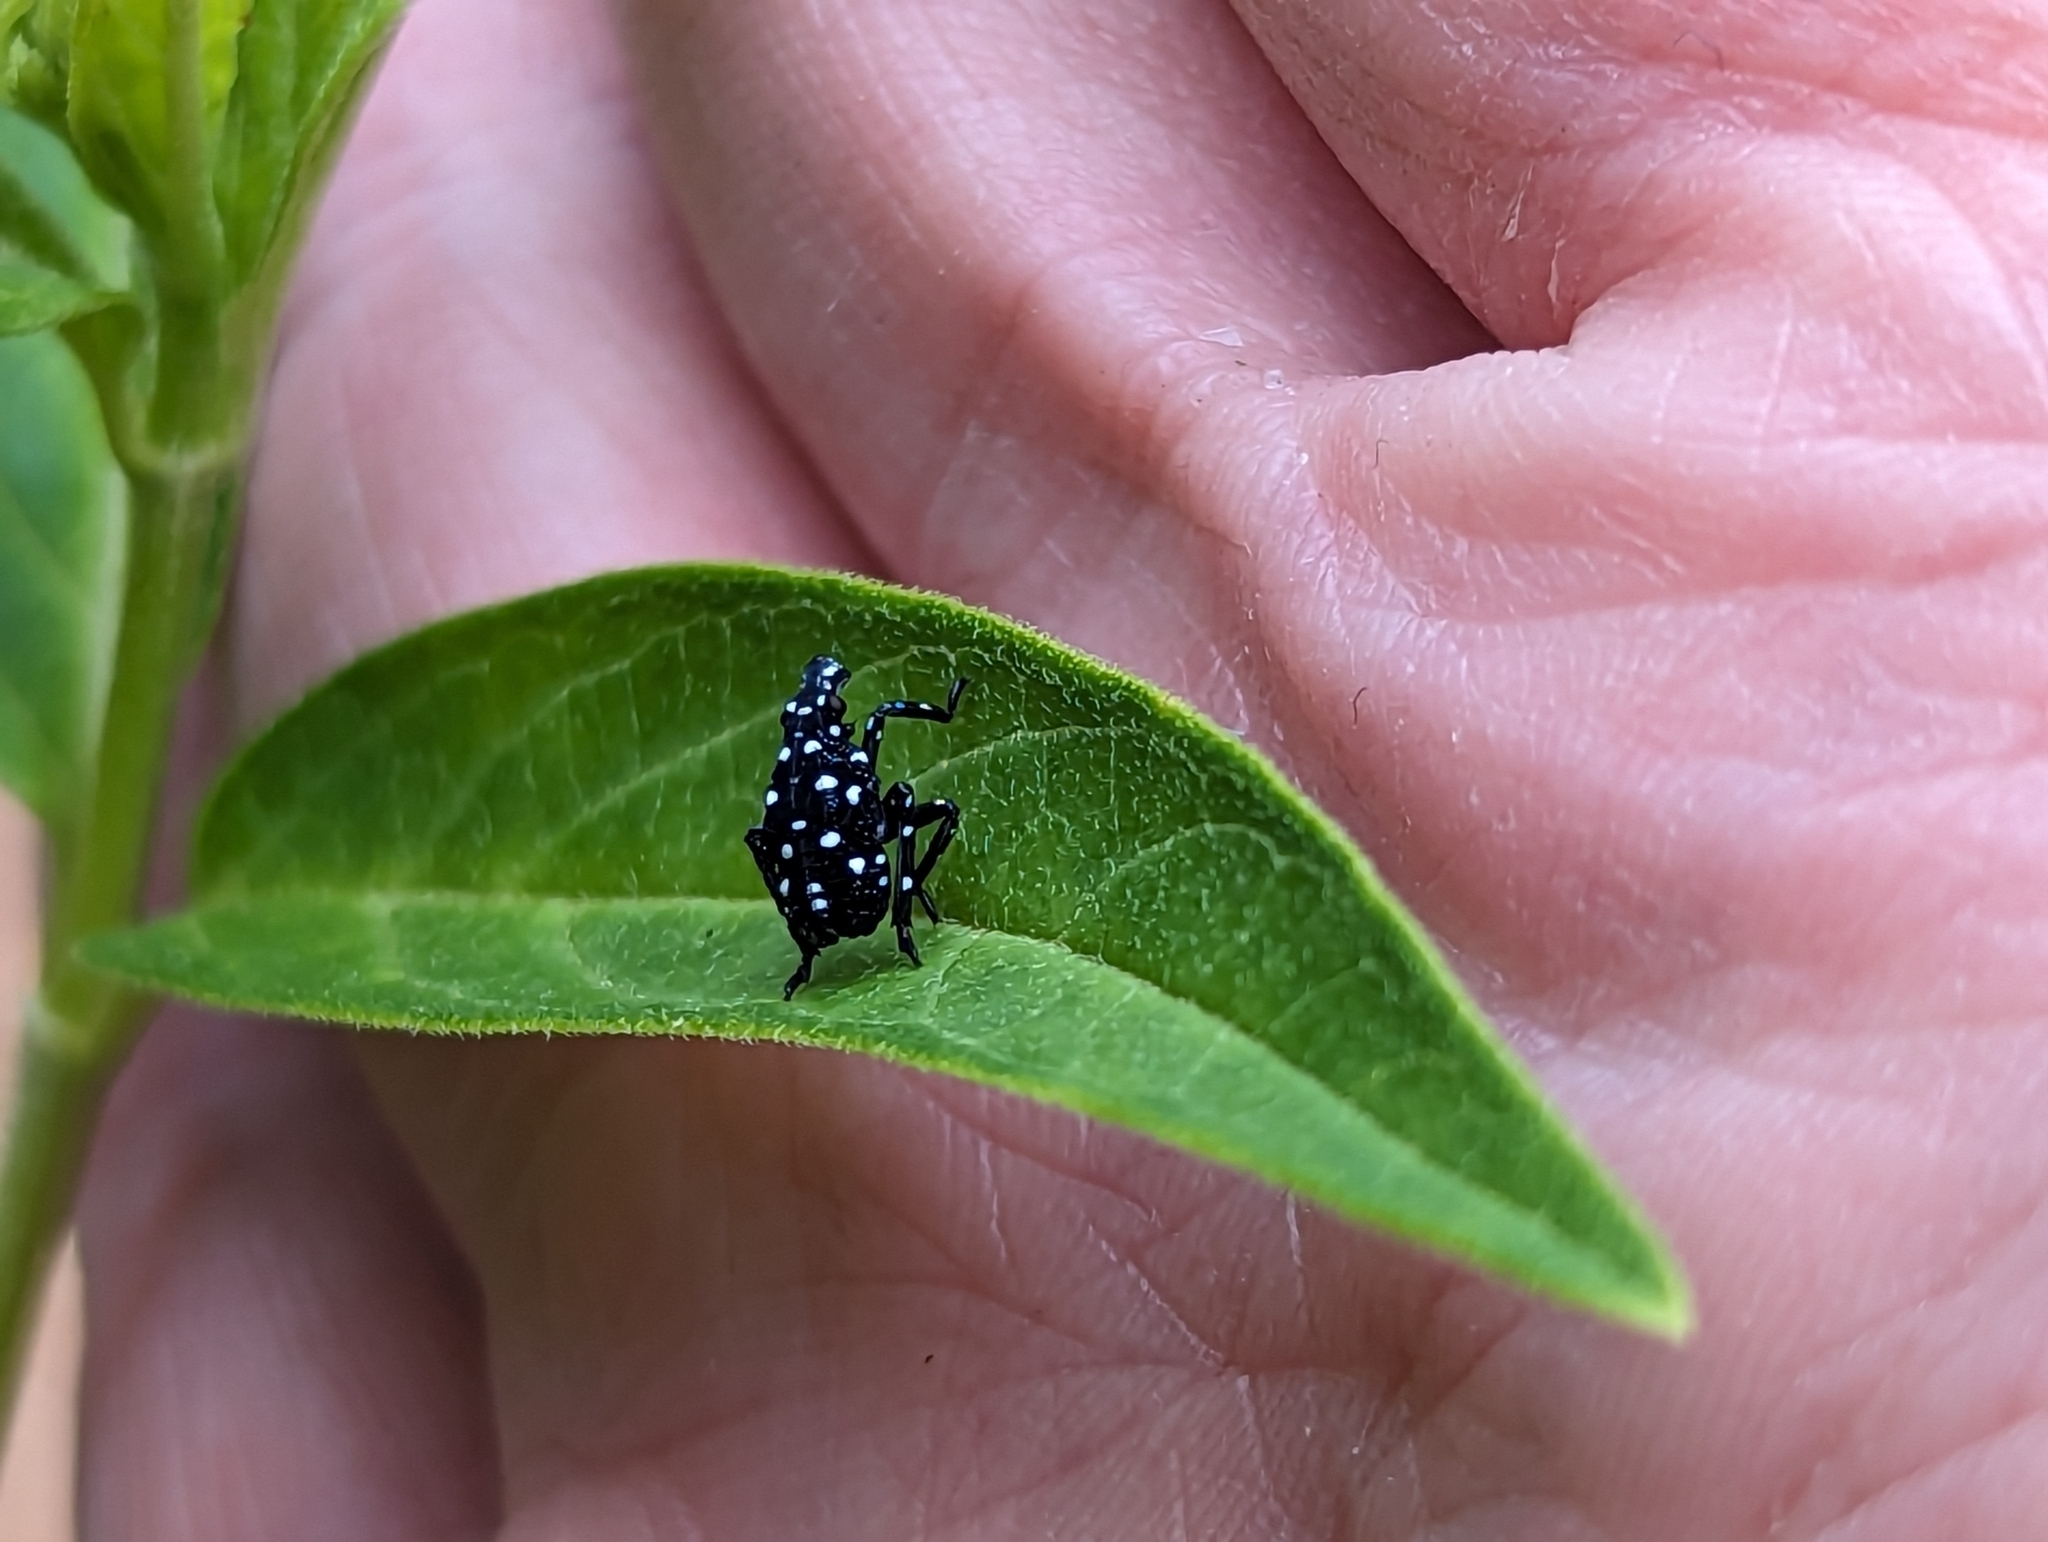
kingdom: Animalia
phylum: Arthropoda
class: Insecta
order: Hemiptera
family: Fulgoridae
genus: Lycorma
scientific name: Lycorma delicatula
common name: Spotted lanternfly
